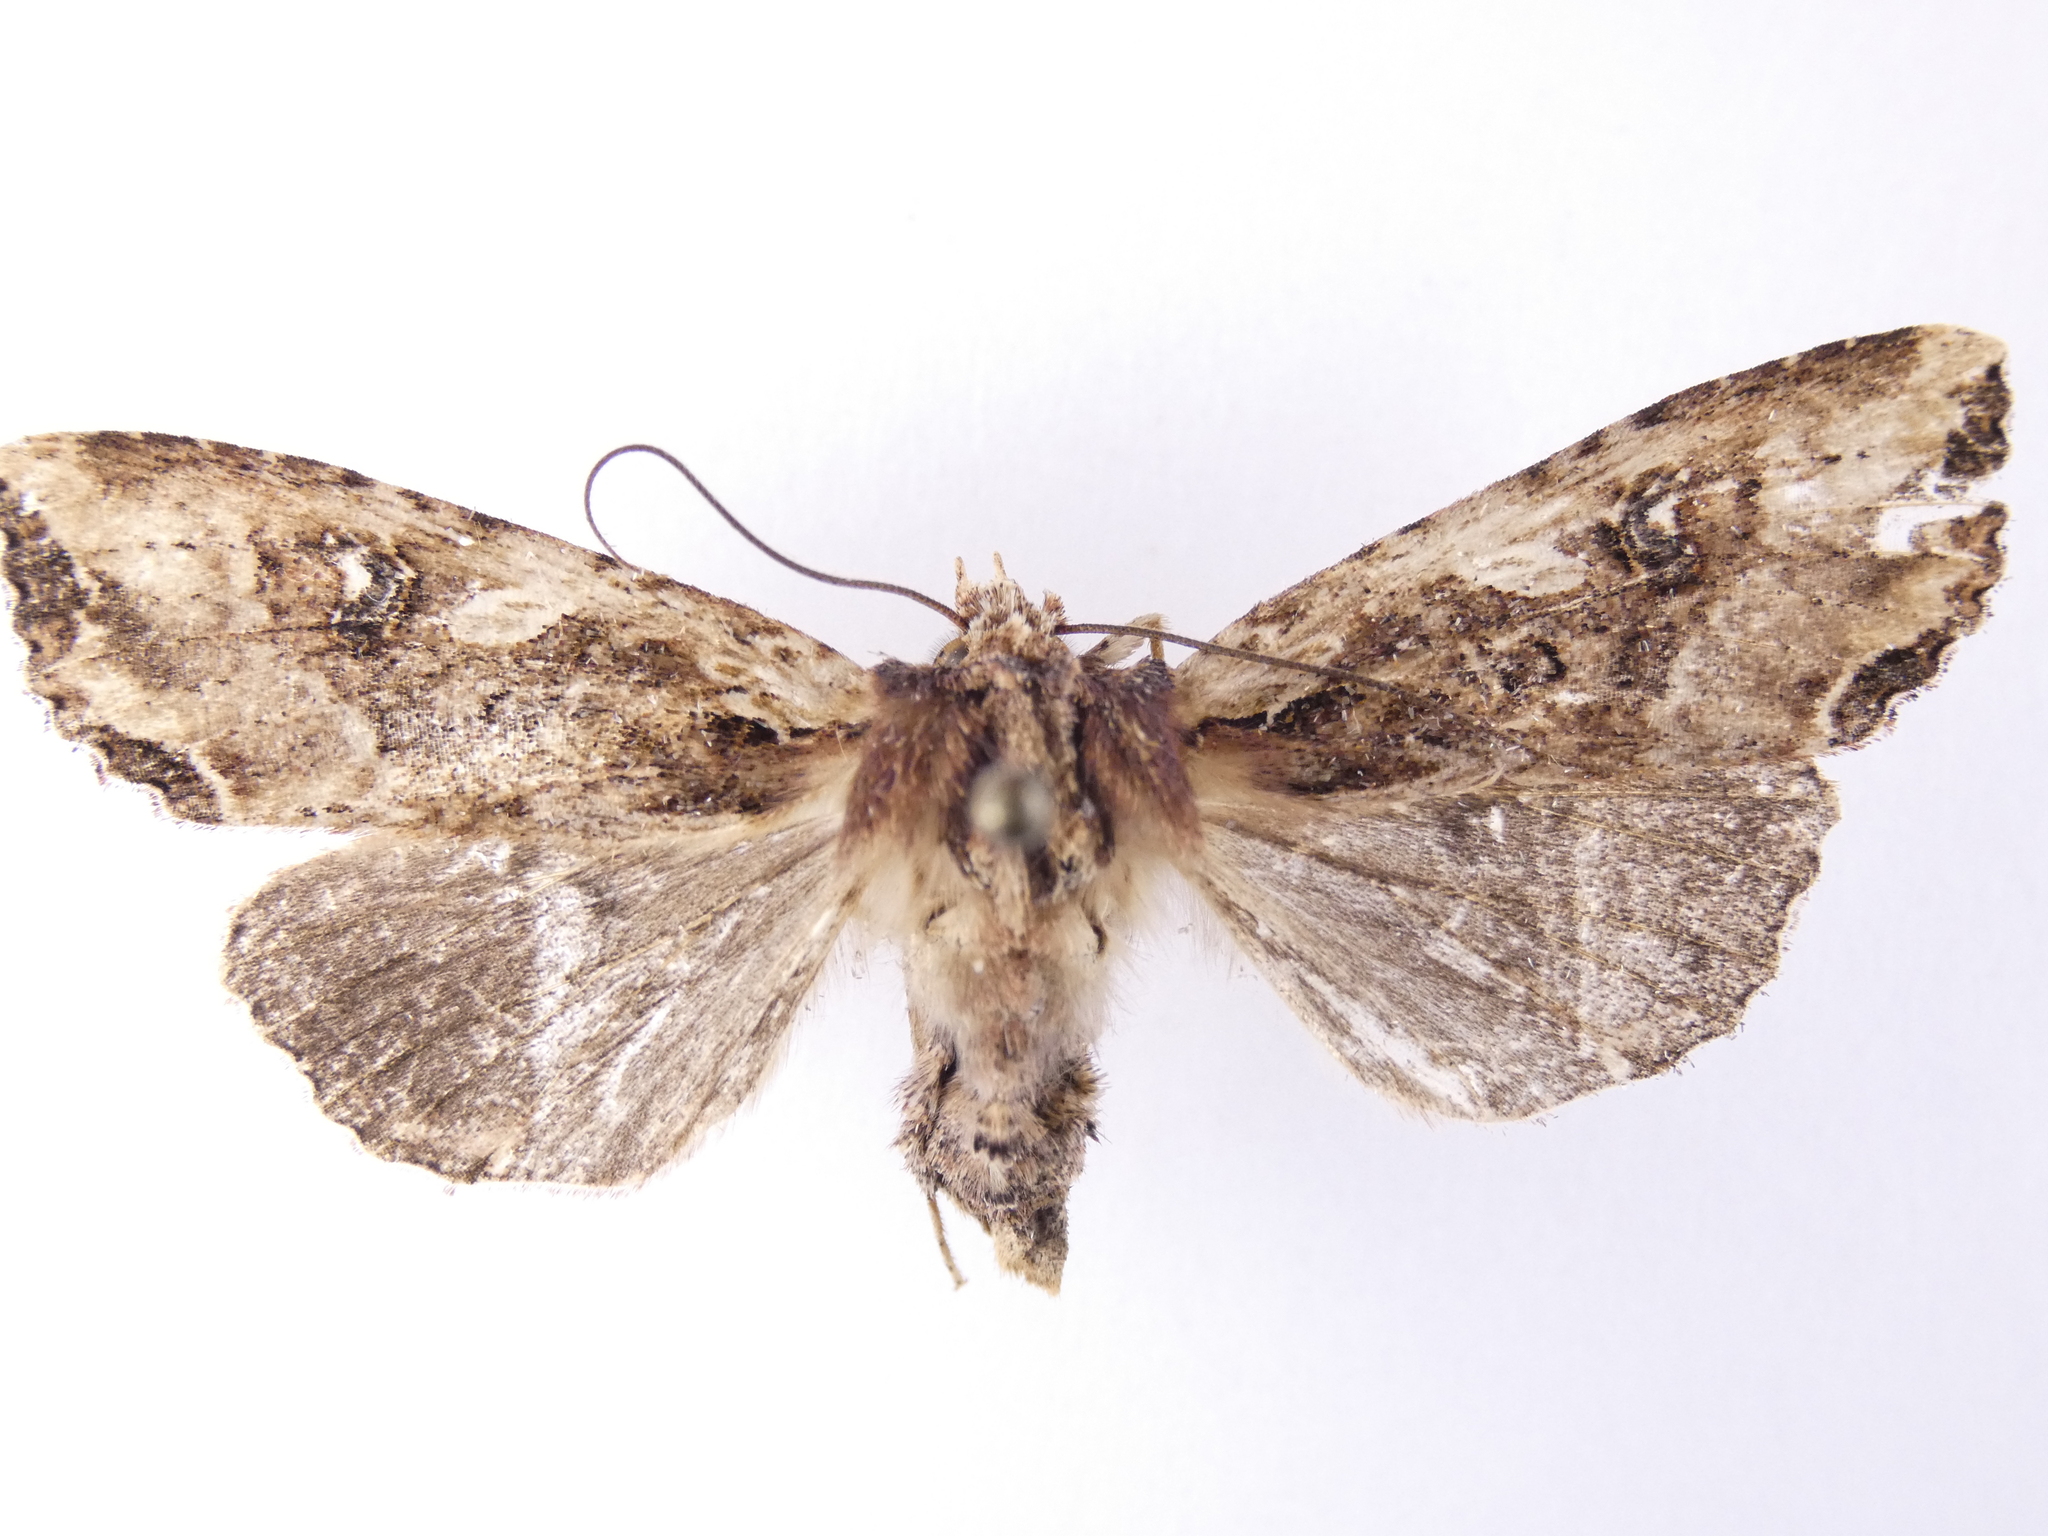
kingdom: Animalia
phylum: Arthropoda
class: Insecta
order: Lepidoptera
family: Noctuidae
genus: Meterana
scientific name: Meterana stipata
